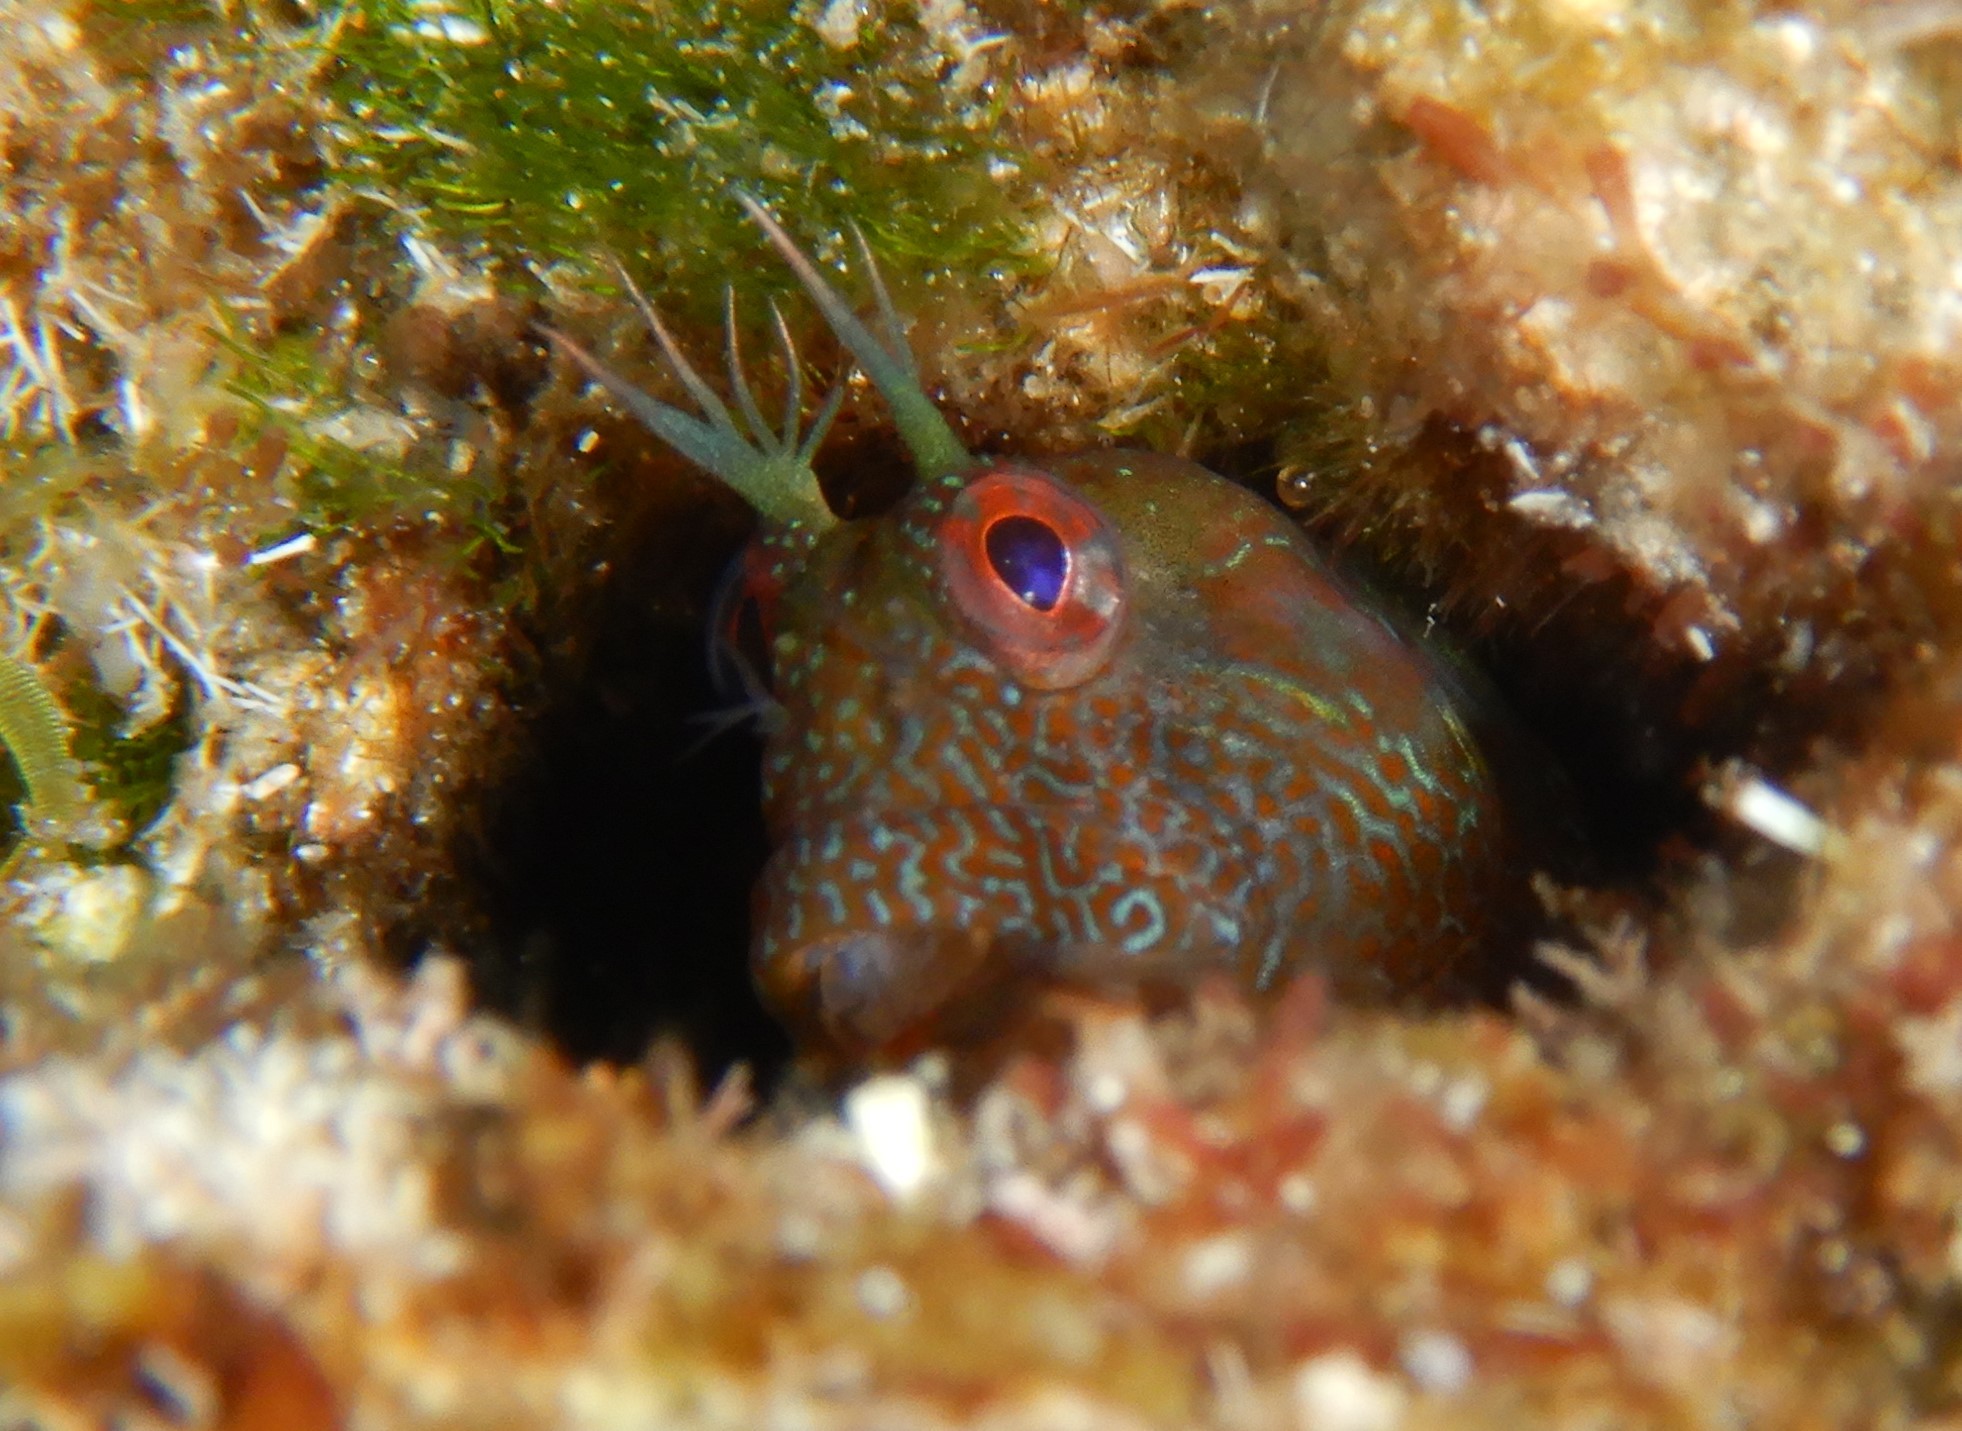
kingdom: Animalia
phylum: Chordata
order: Perciformes
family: Blenniidae
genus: Parablennius
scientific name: Parablennius incognitus
